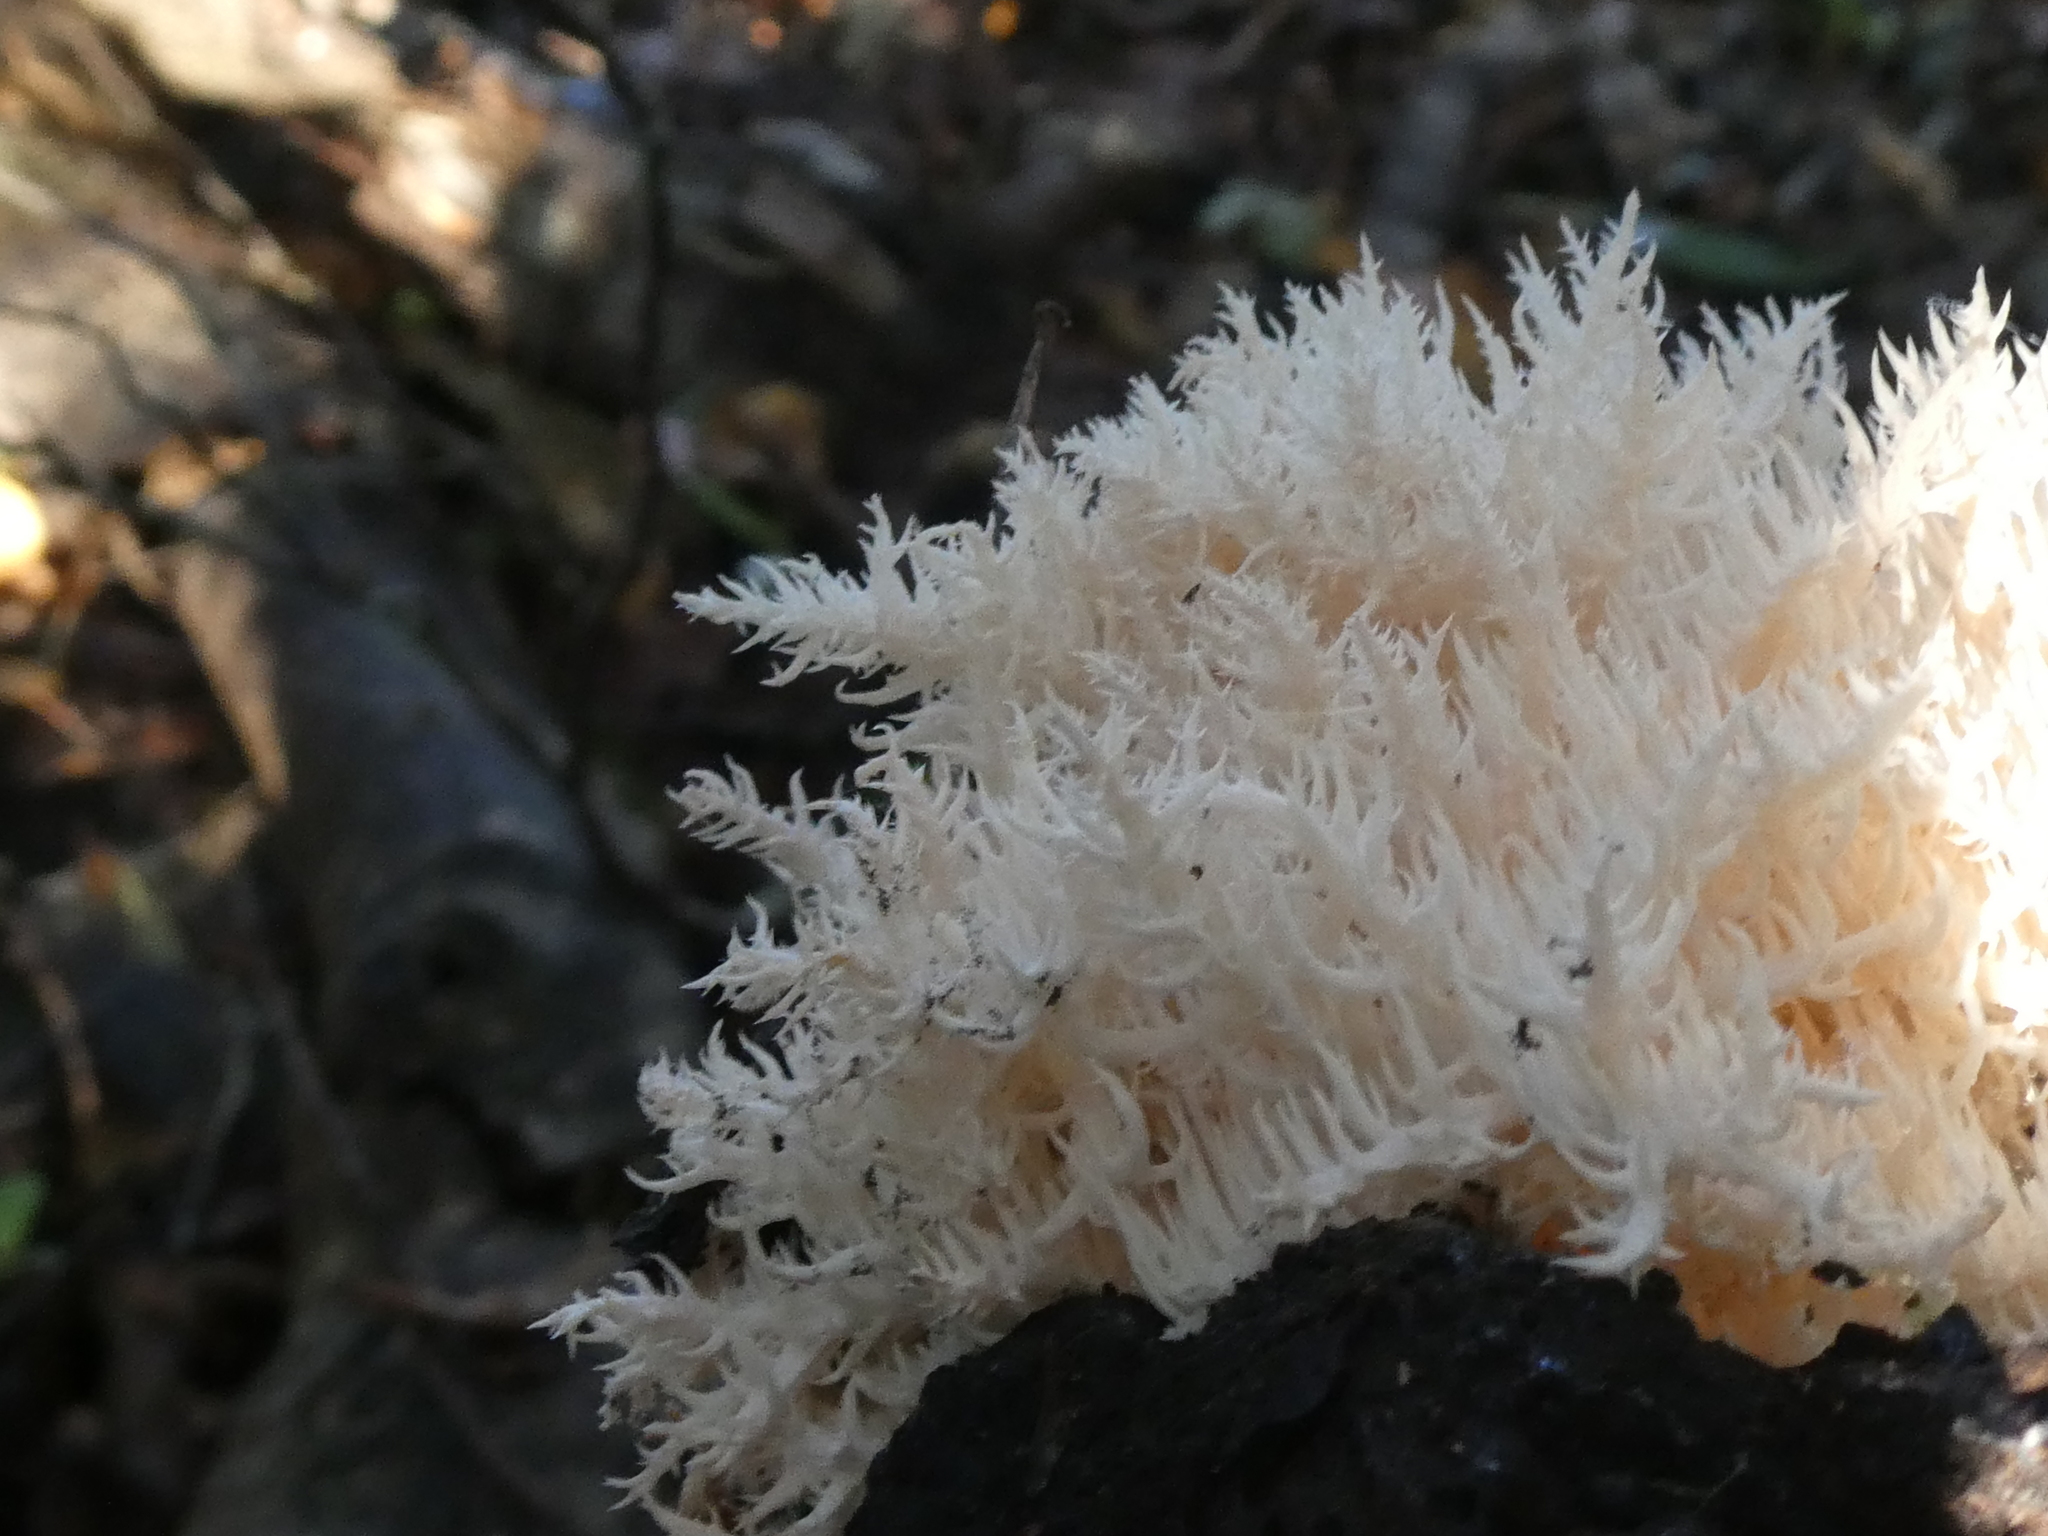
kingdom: Fungi
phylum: Basidiomycota
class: Agaricomycetes
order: Russulales
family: Hericiaceae
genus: Hericium
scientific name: Hericium novae-zealandiae
